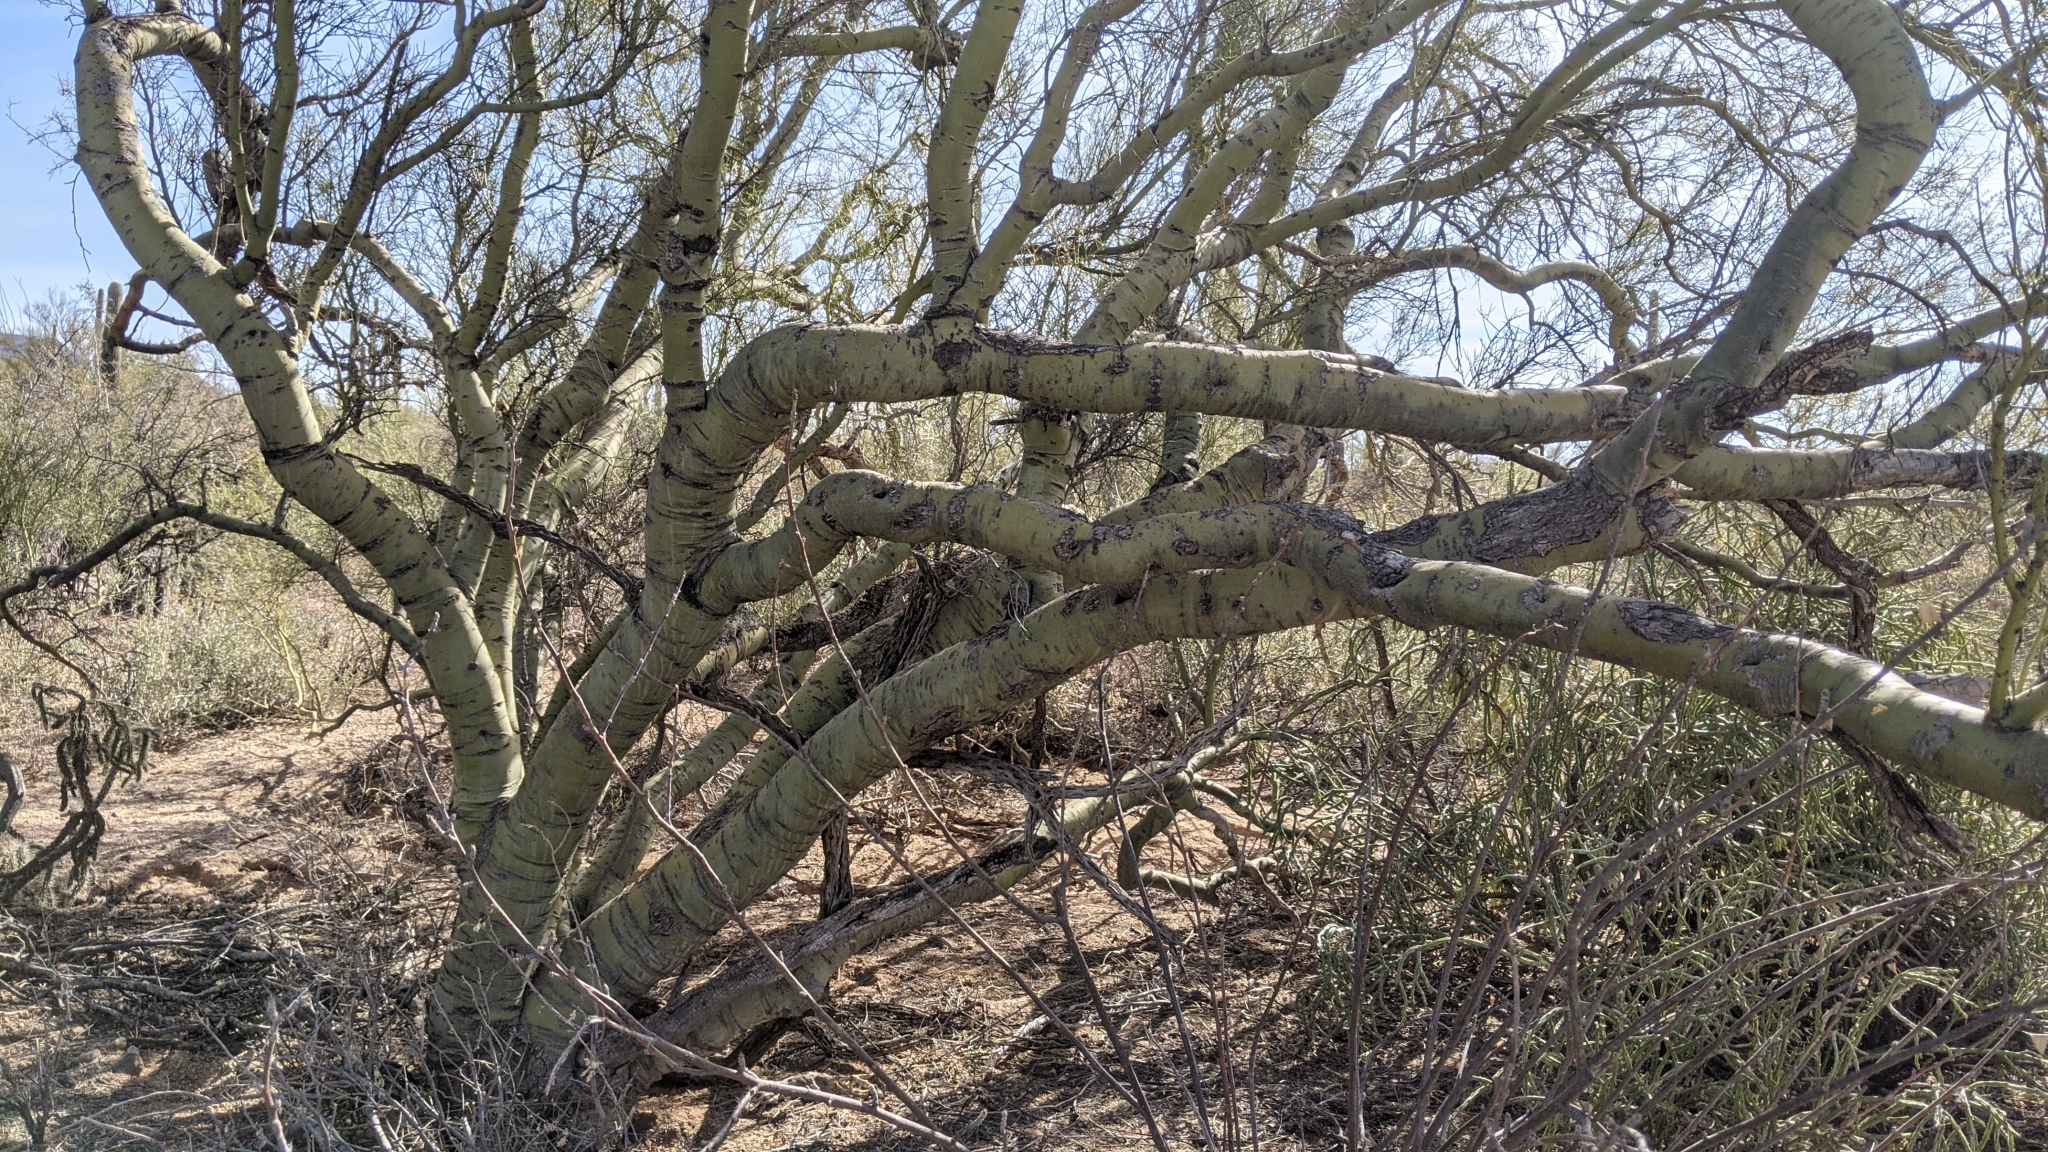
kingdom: Plantae
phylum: Tracheophyta
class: Magnoliopsida
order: Fabales
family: Fabaceae
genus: Parkinsonia
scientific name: Parkinsonia microphylla
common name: Yellow paloverde
